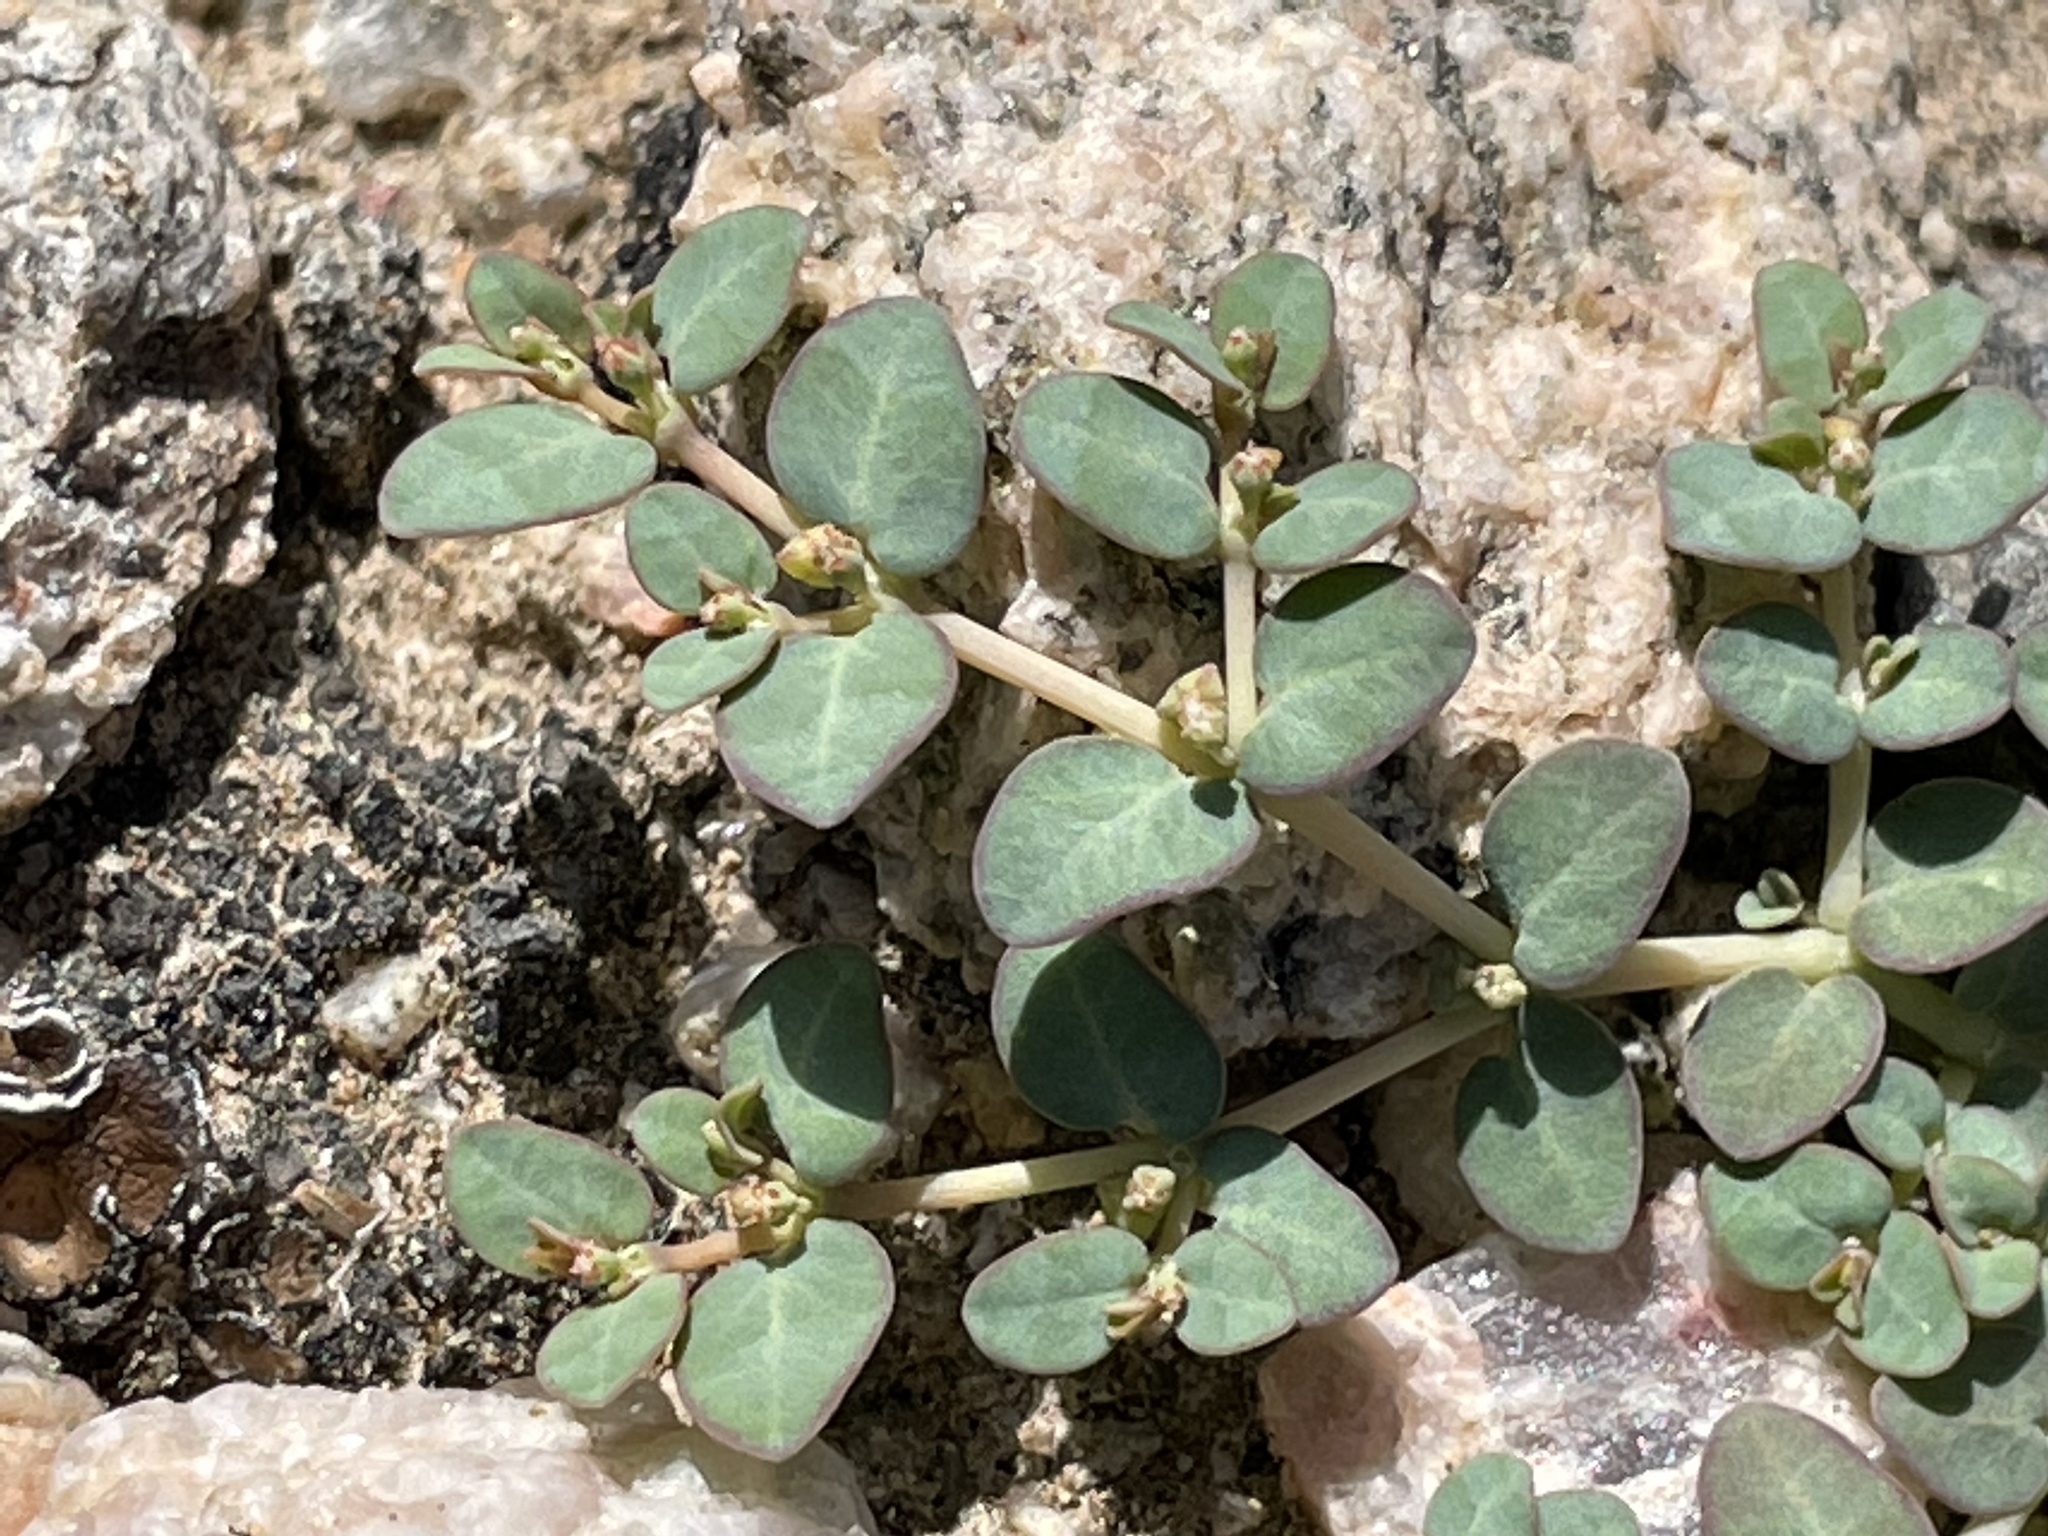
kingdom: Plantae
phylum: Tracheophyta
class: Magnoliopsida
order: Malpighiales
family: Euphorbiaceae
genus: Euphorbia
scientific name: Euphorbia micromera
